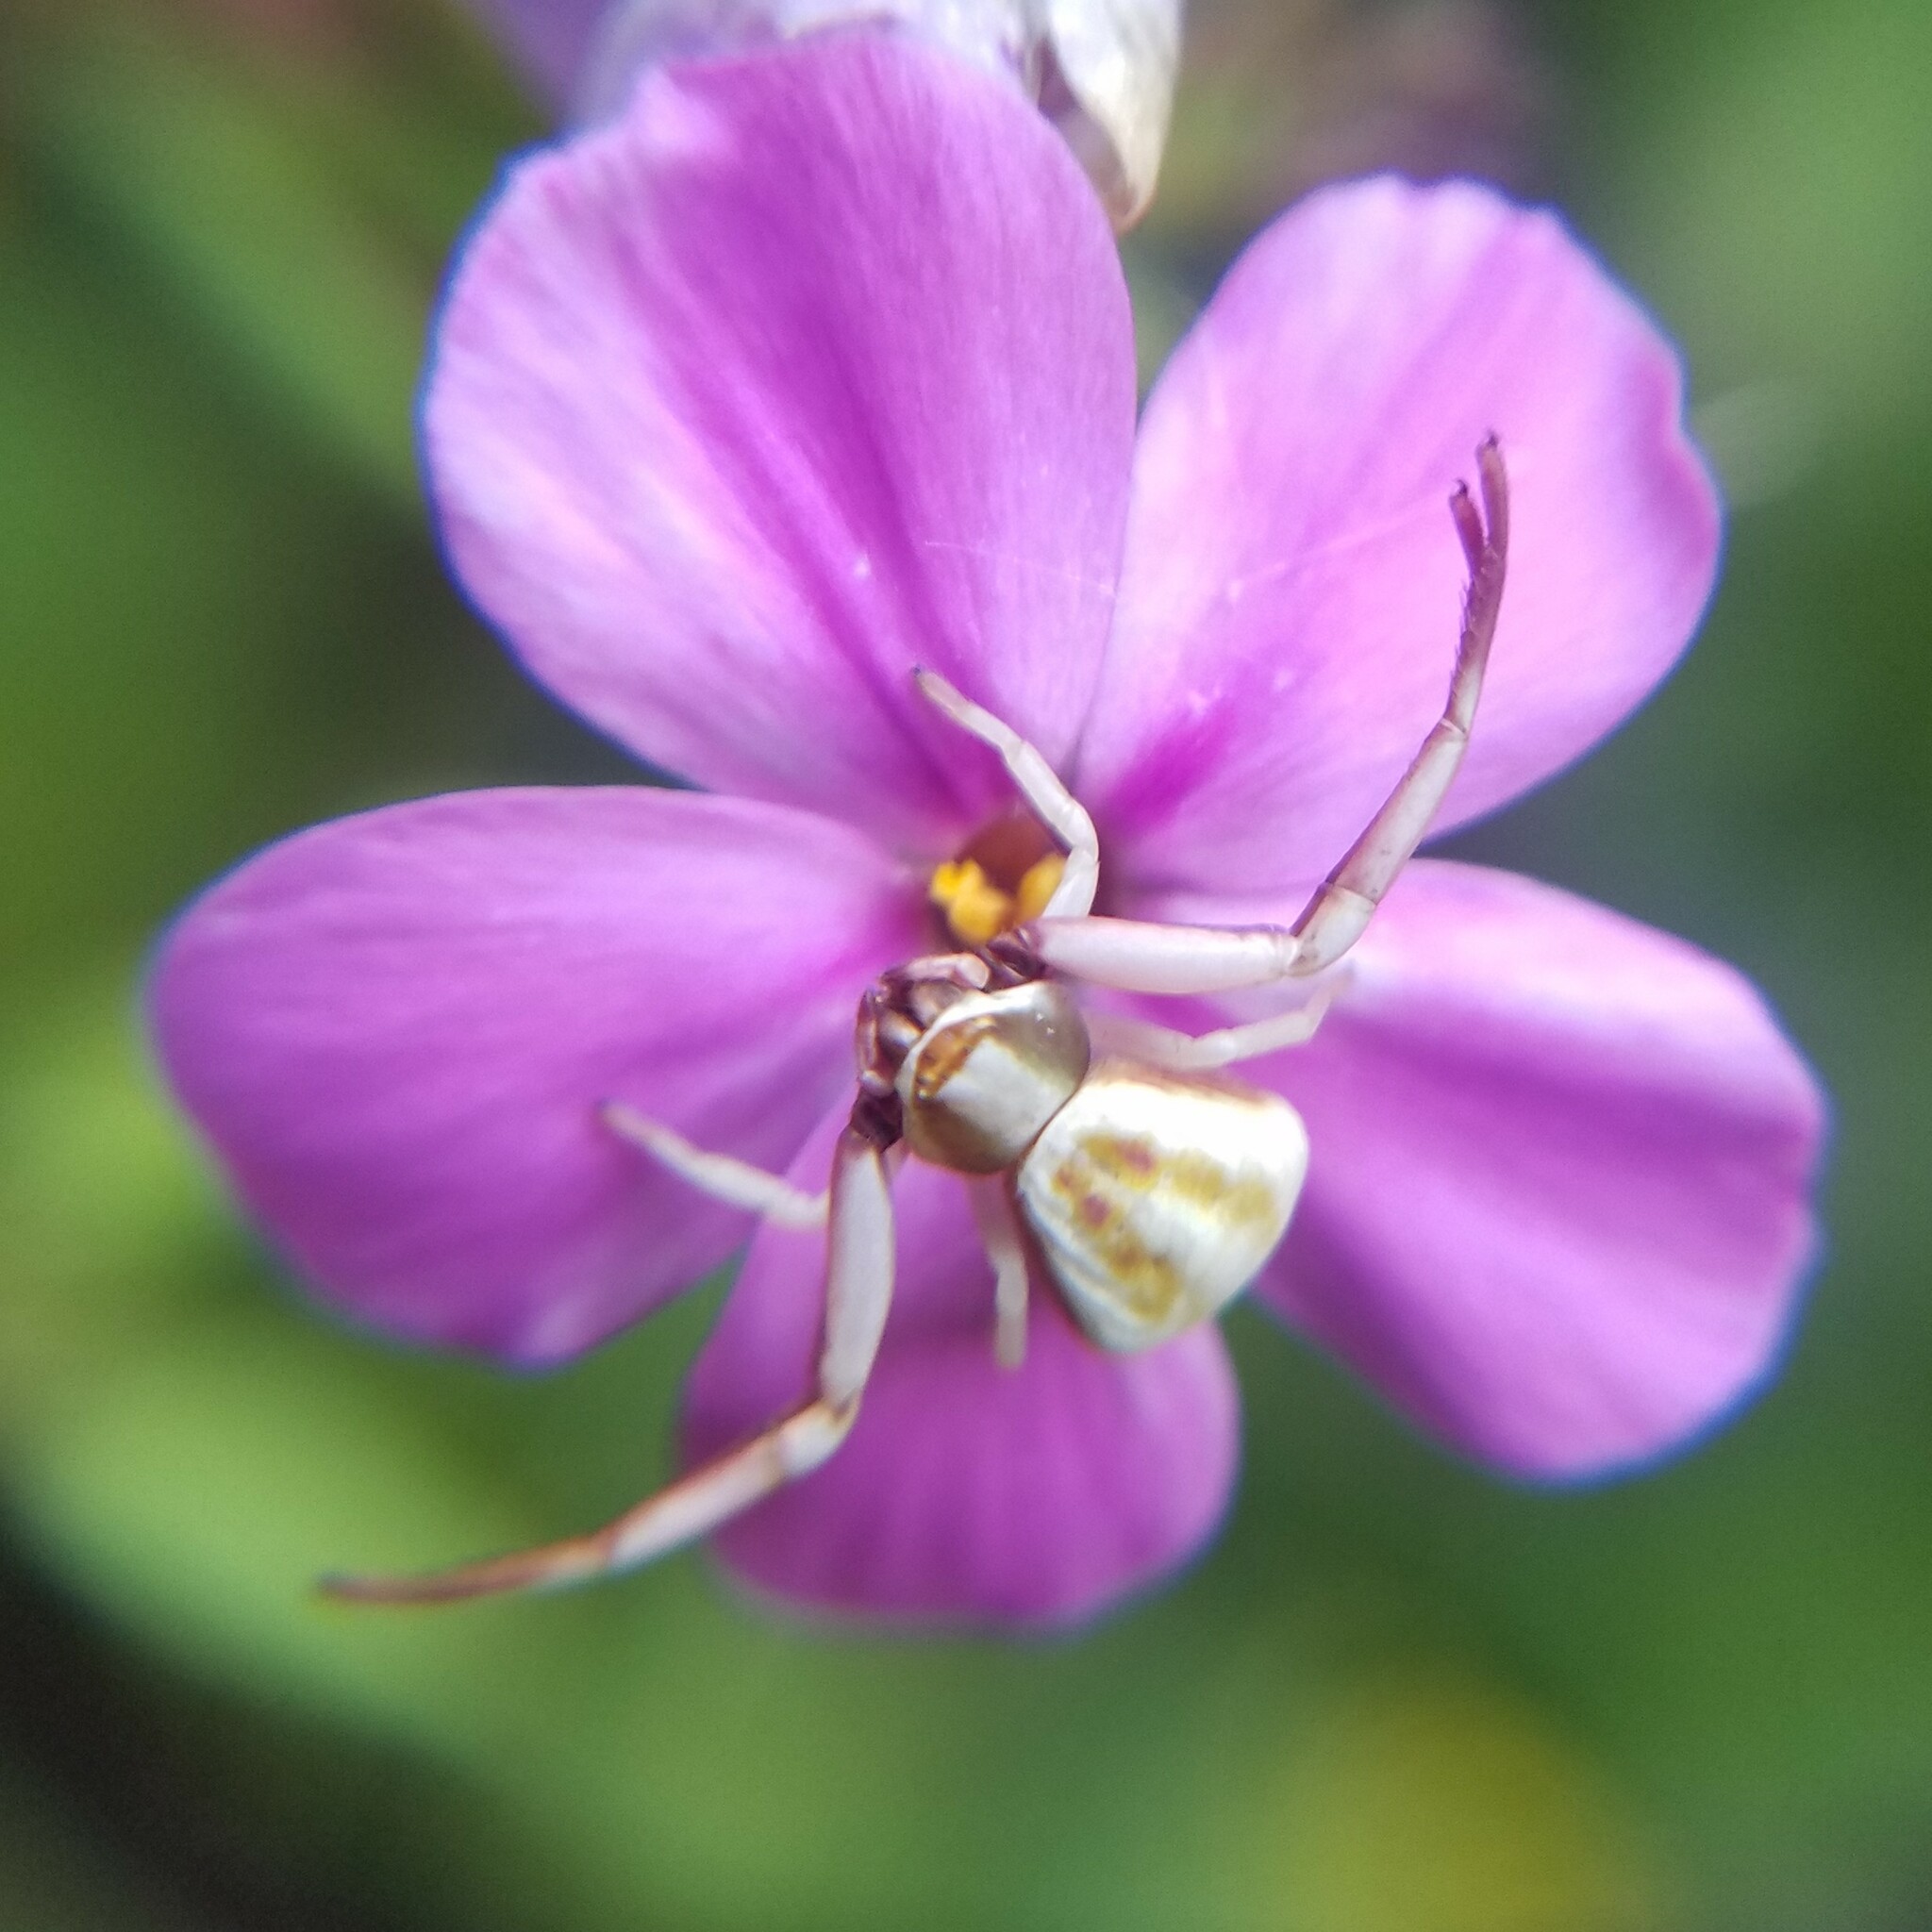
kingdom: Animalia
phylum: Arthropoda
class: Arachnida
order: Araneae
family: Thomisidae
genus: Misumenoides
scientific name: Misumenoides formosipes
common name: White-banded crab spider
